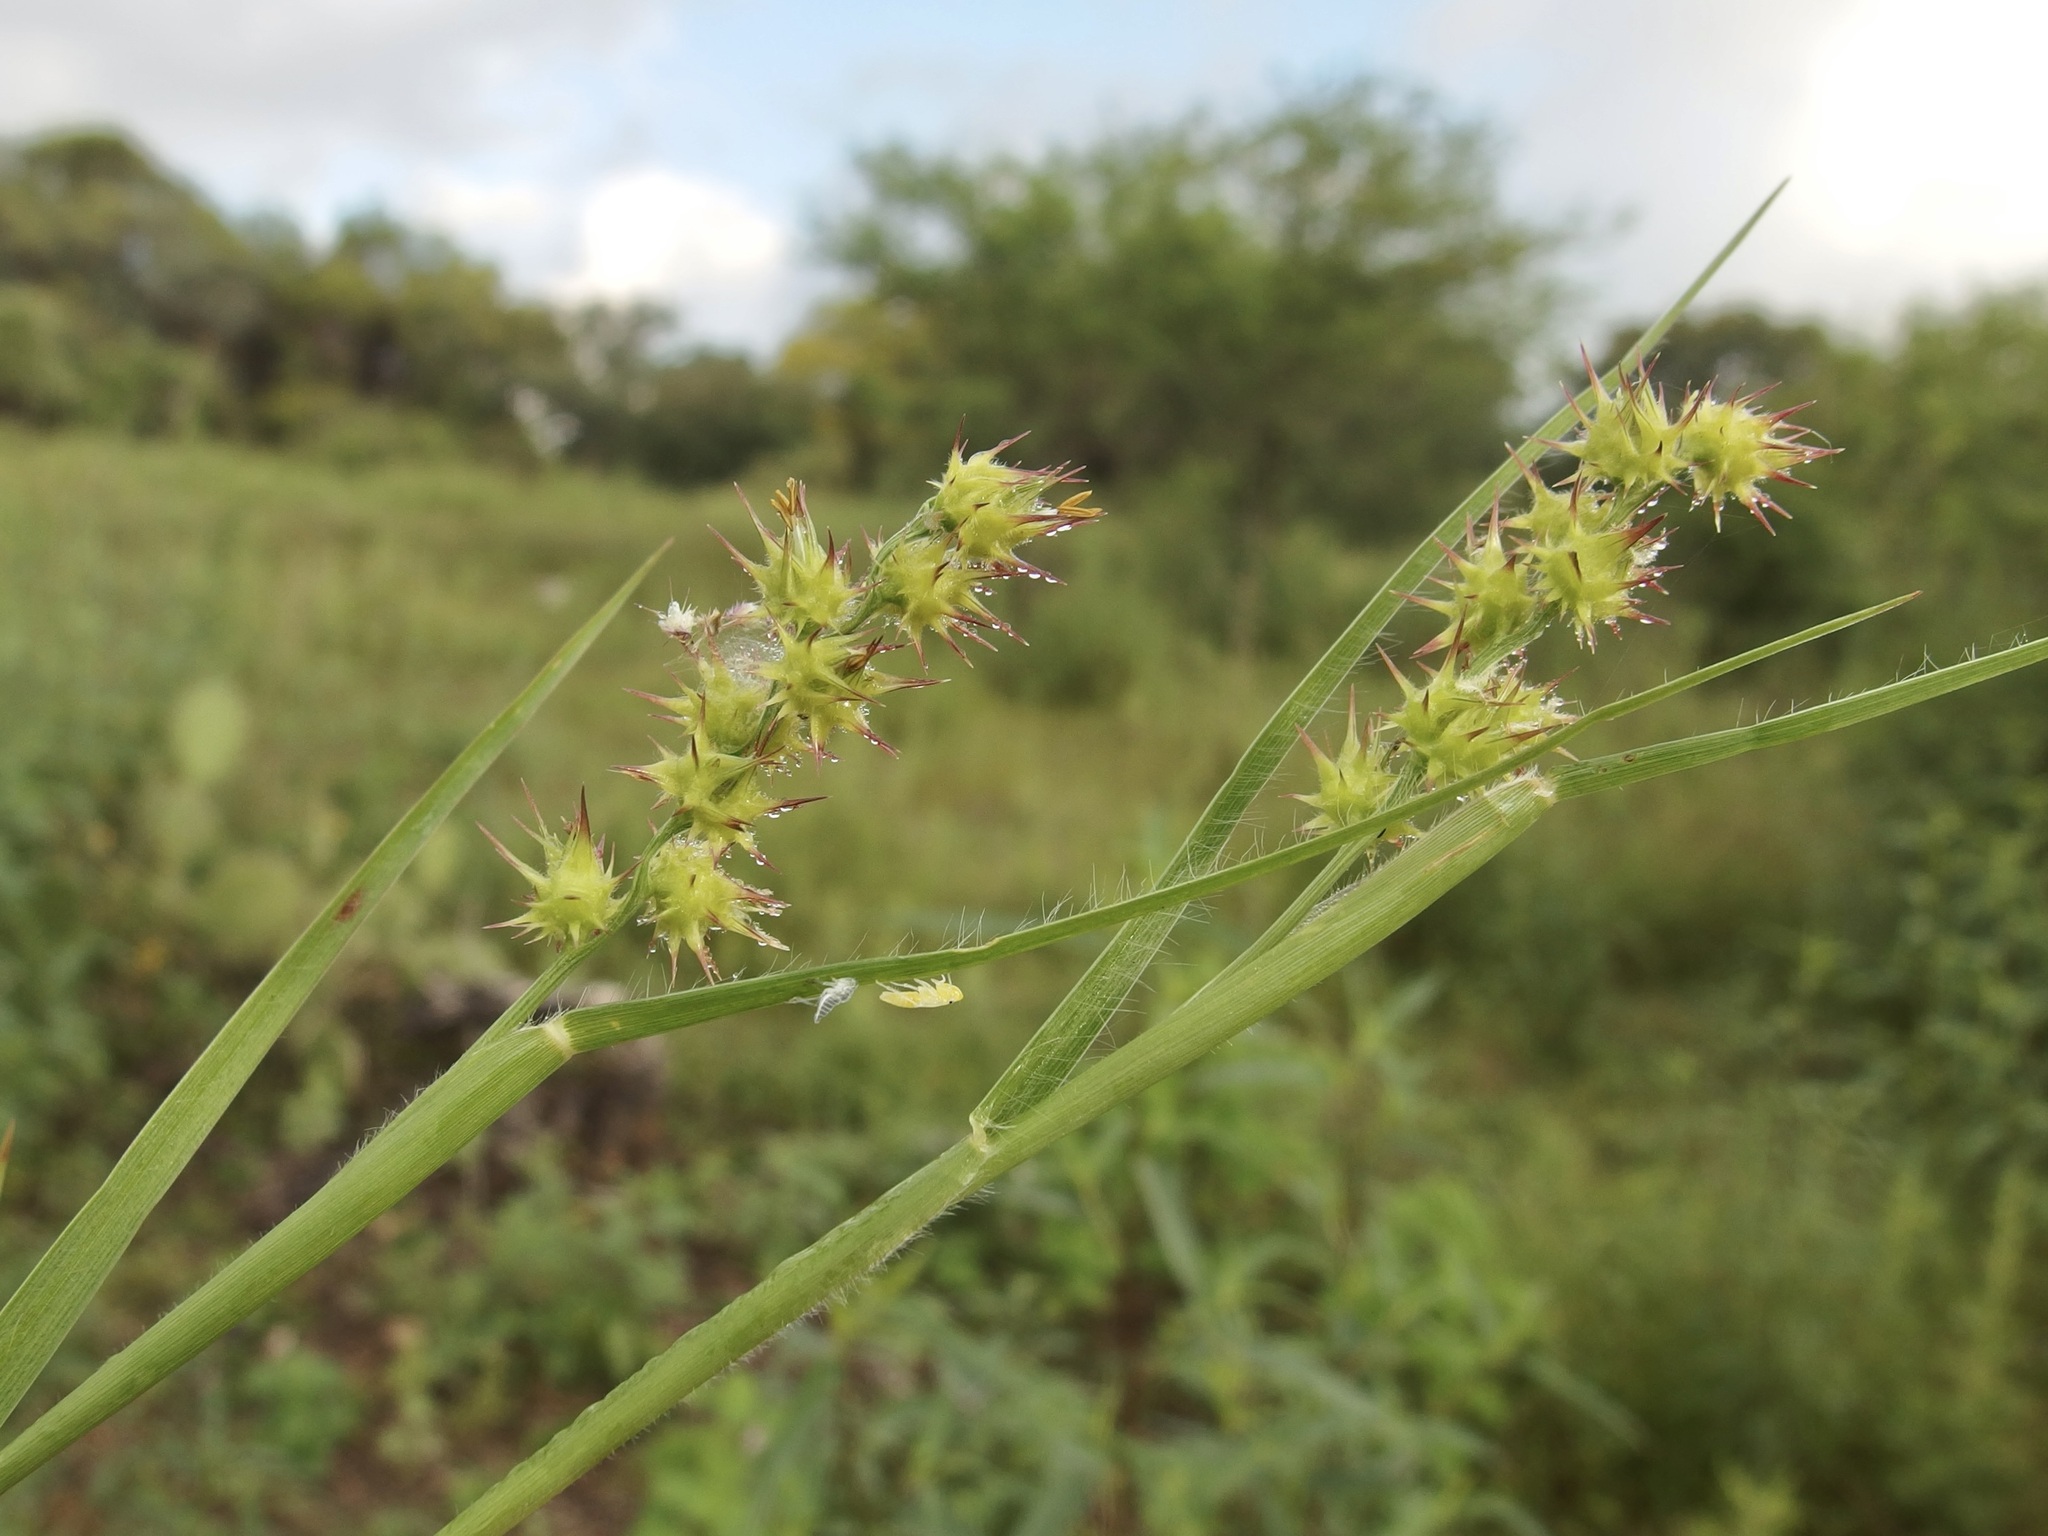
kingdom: Plantae
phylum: Tracheophyta
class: Liliopsida
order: Poales
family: Poaceae
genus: Cenchrus
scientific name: Cenchrus spinifex
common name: Coast sandbur
